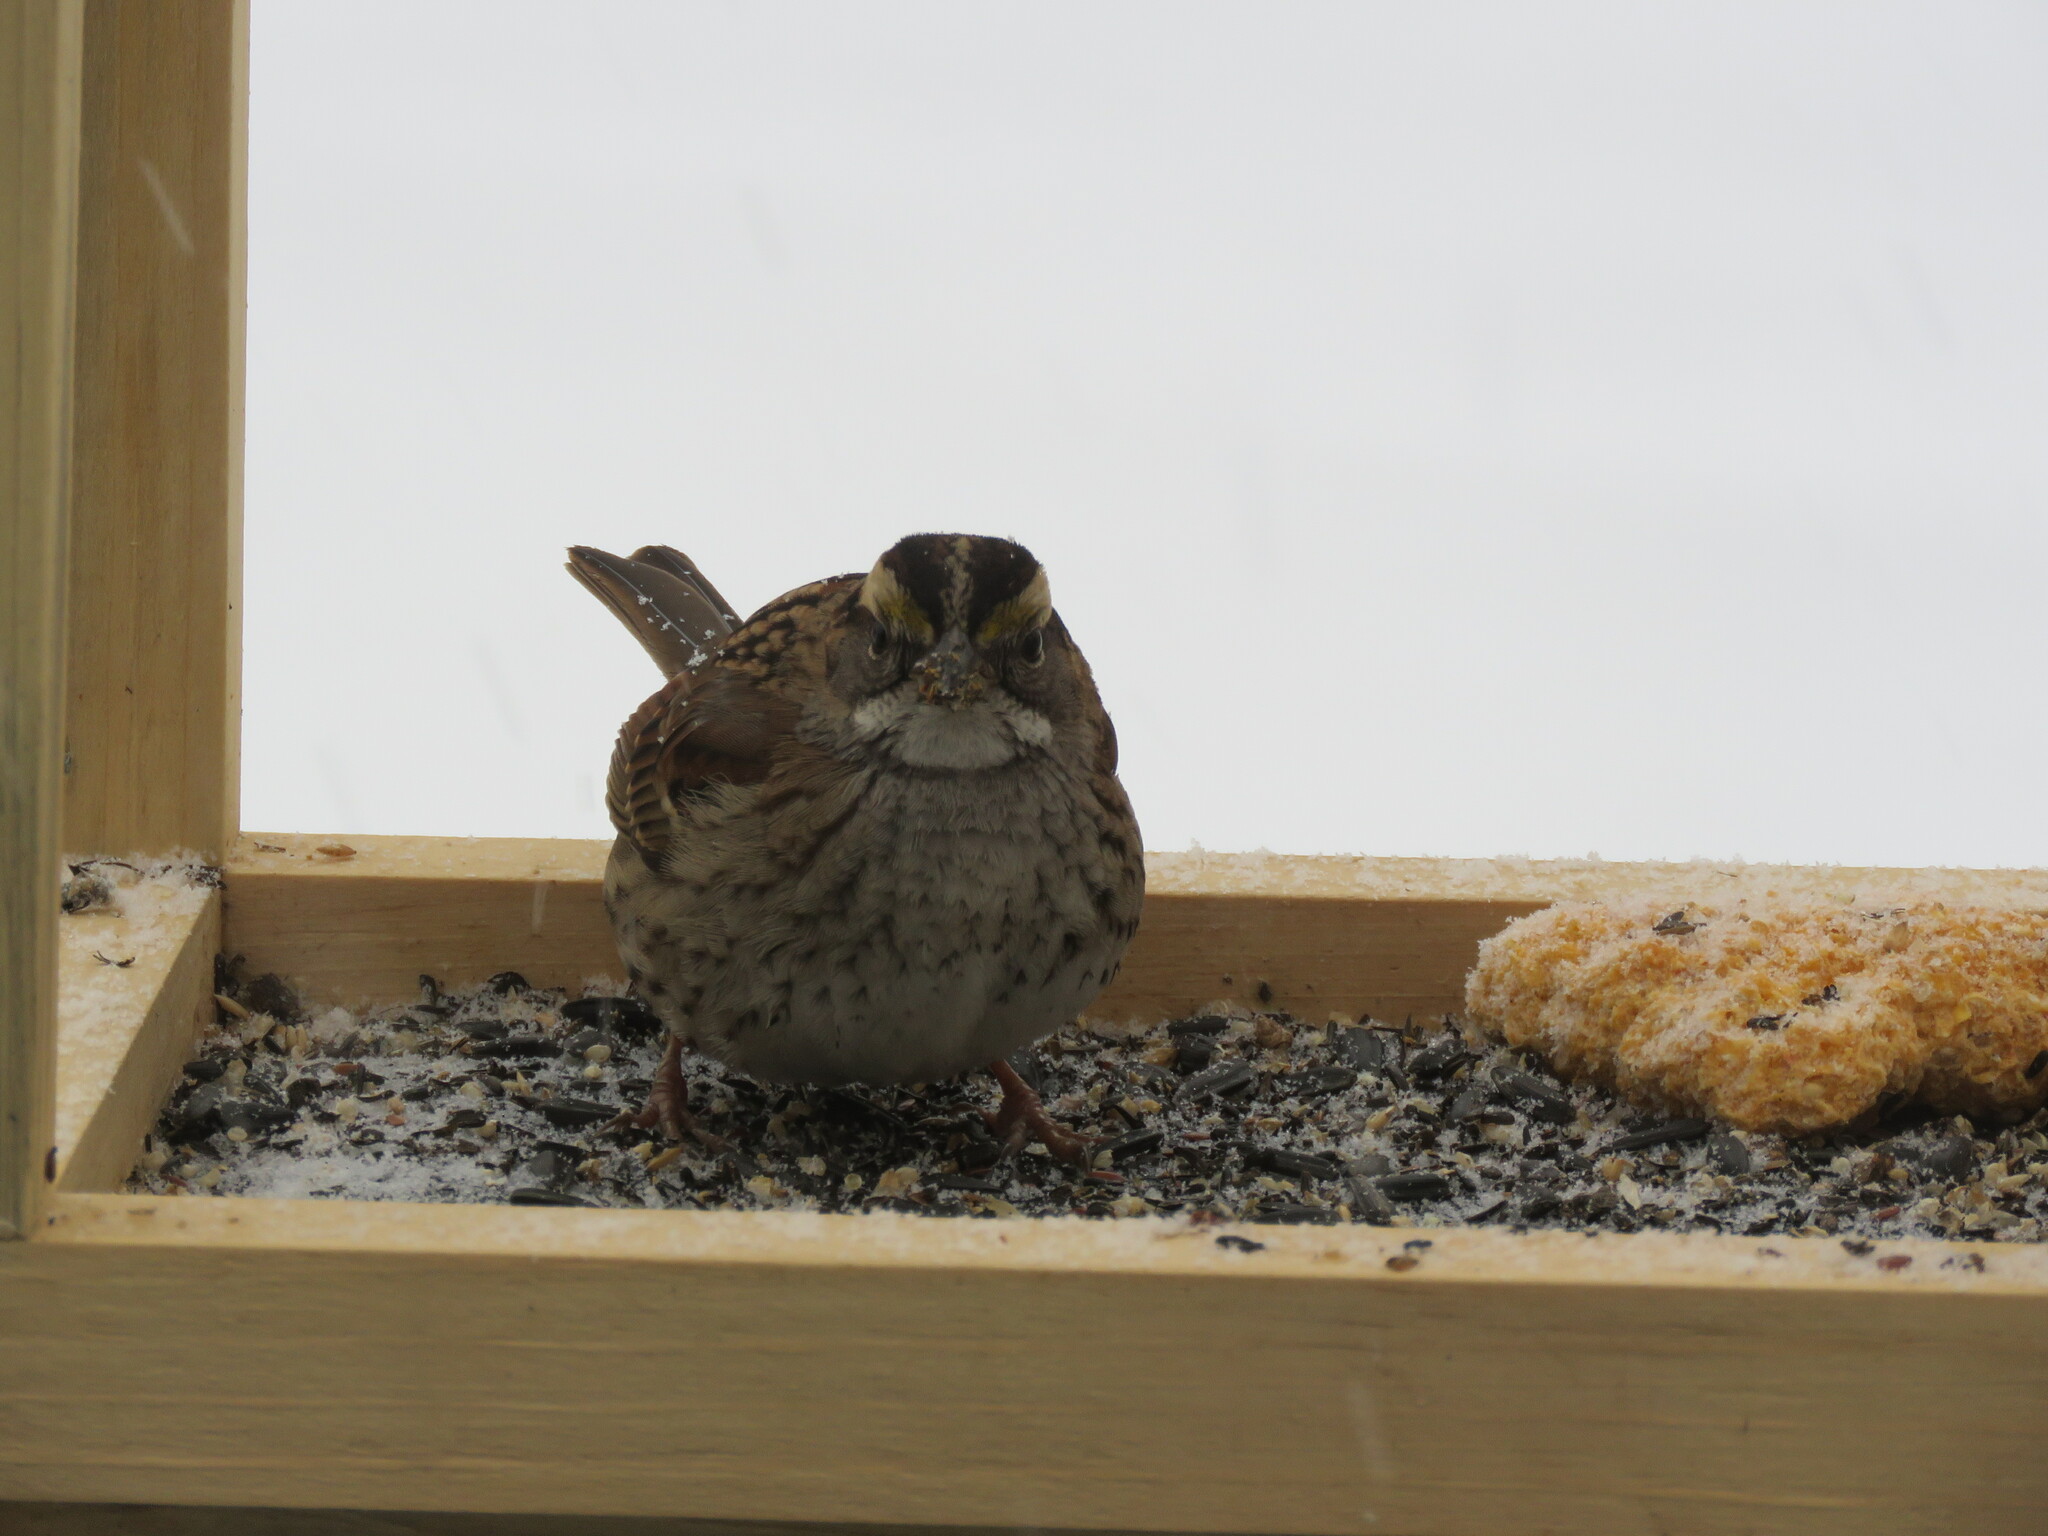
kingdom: Animalia
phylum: Chordata
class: Aves
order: Passeriformes
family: Passerellidae
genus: Zonotrichia
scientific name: Zonotrichia albicollis
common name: White-throated sparrow
